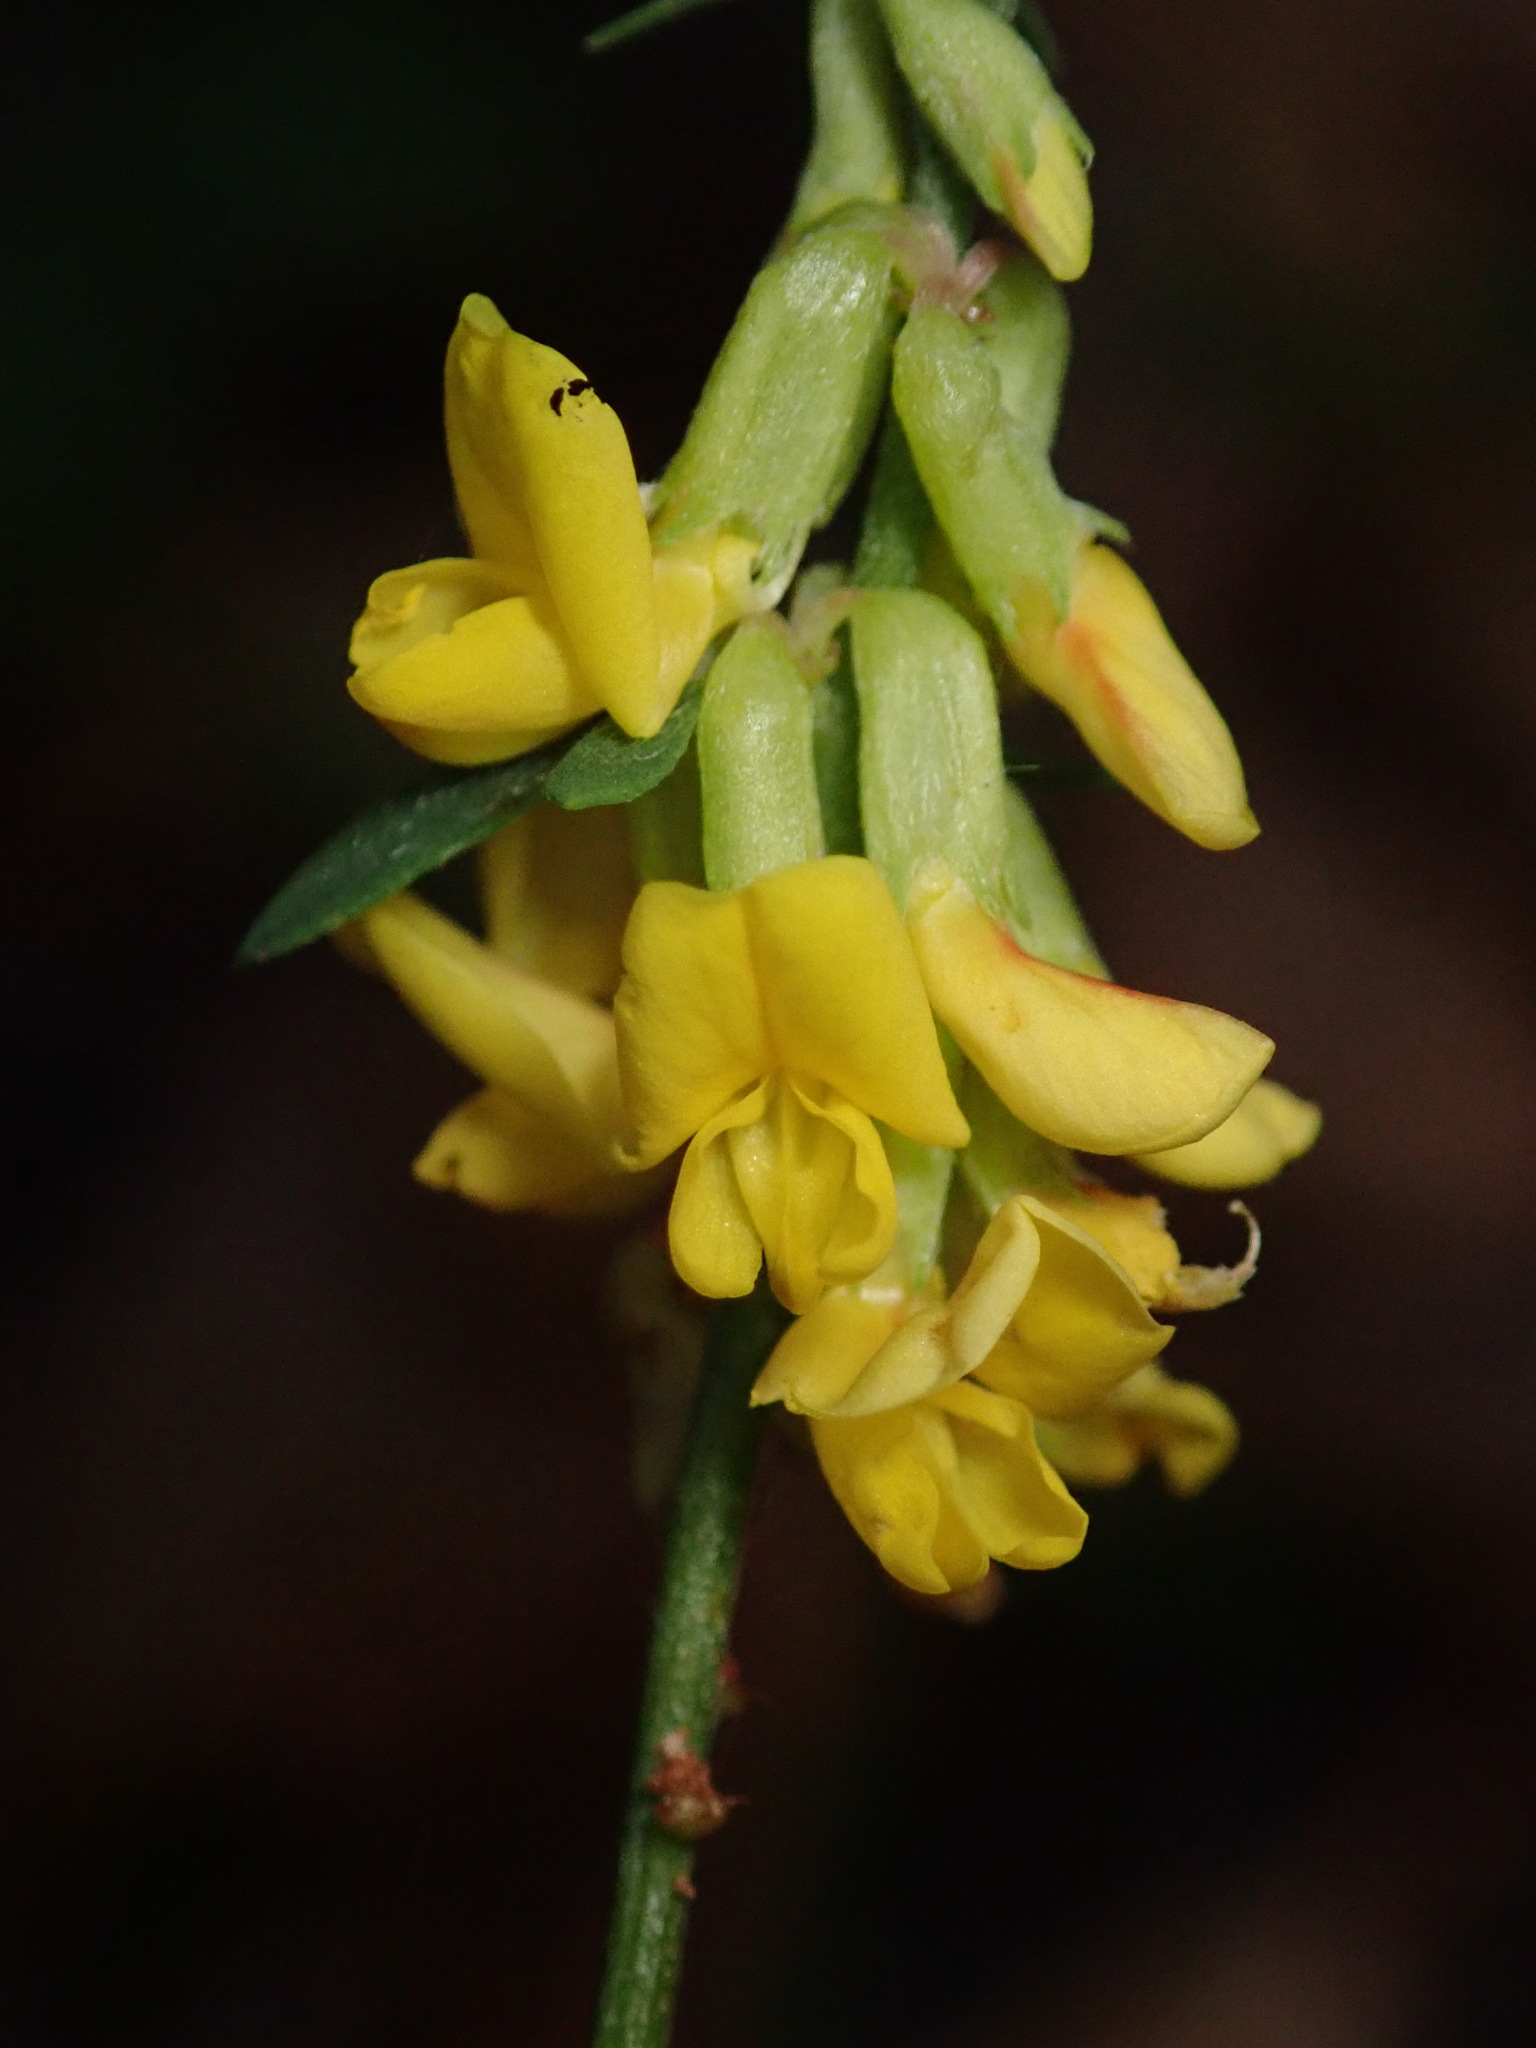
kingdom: Plantae
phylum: Tracheophyta
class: Magnoliopsida
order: Fabales
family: Fabaceae
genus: Acmispon
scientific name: Acmispon glaber
